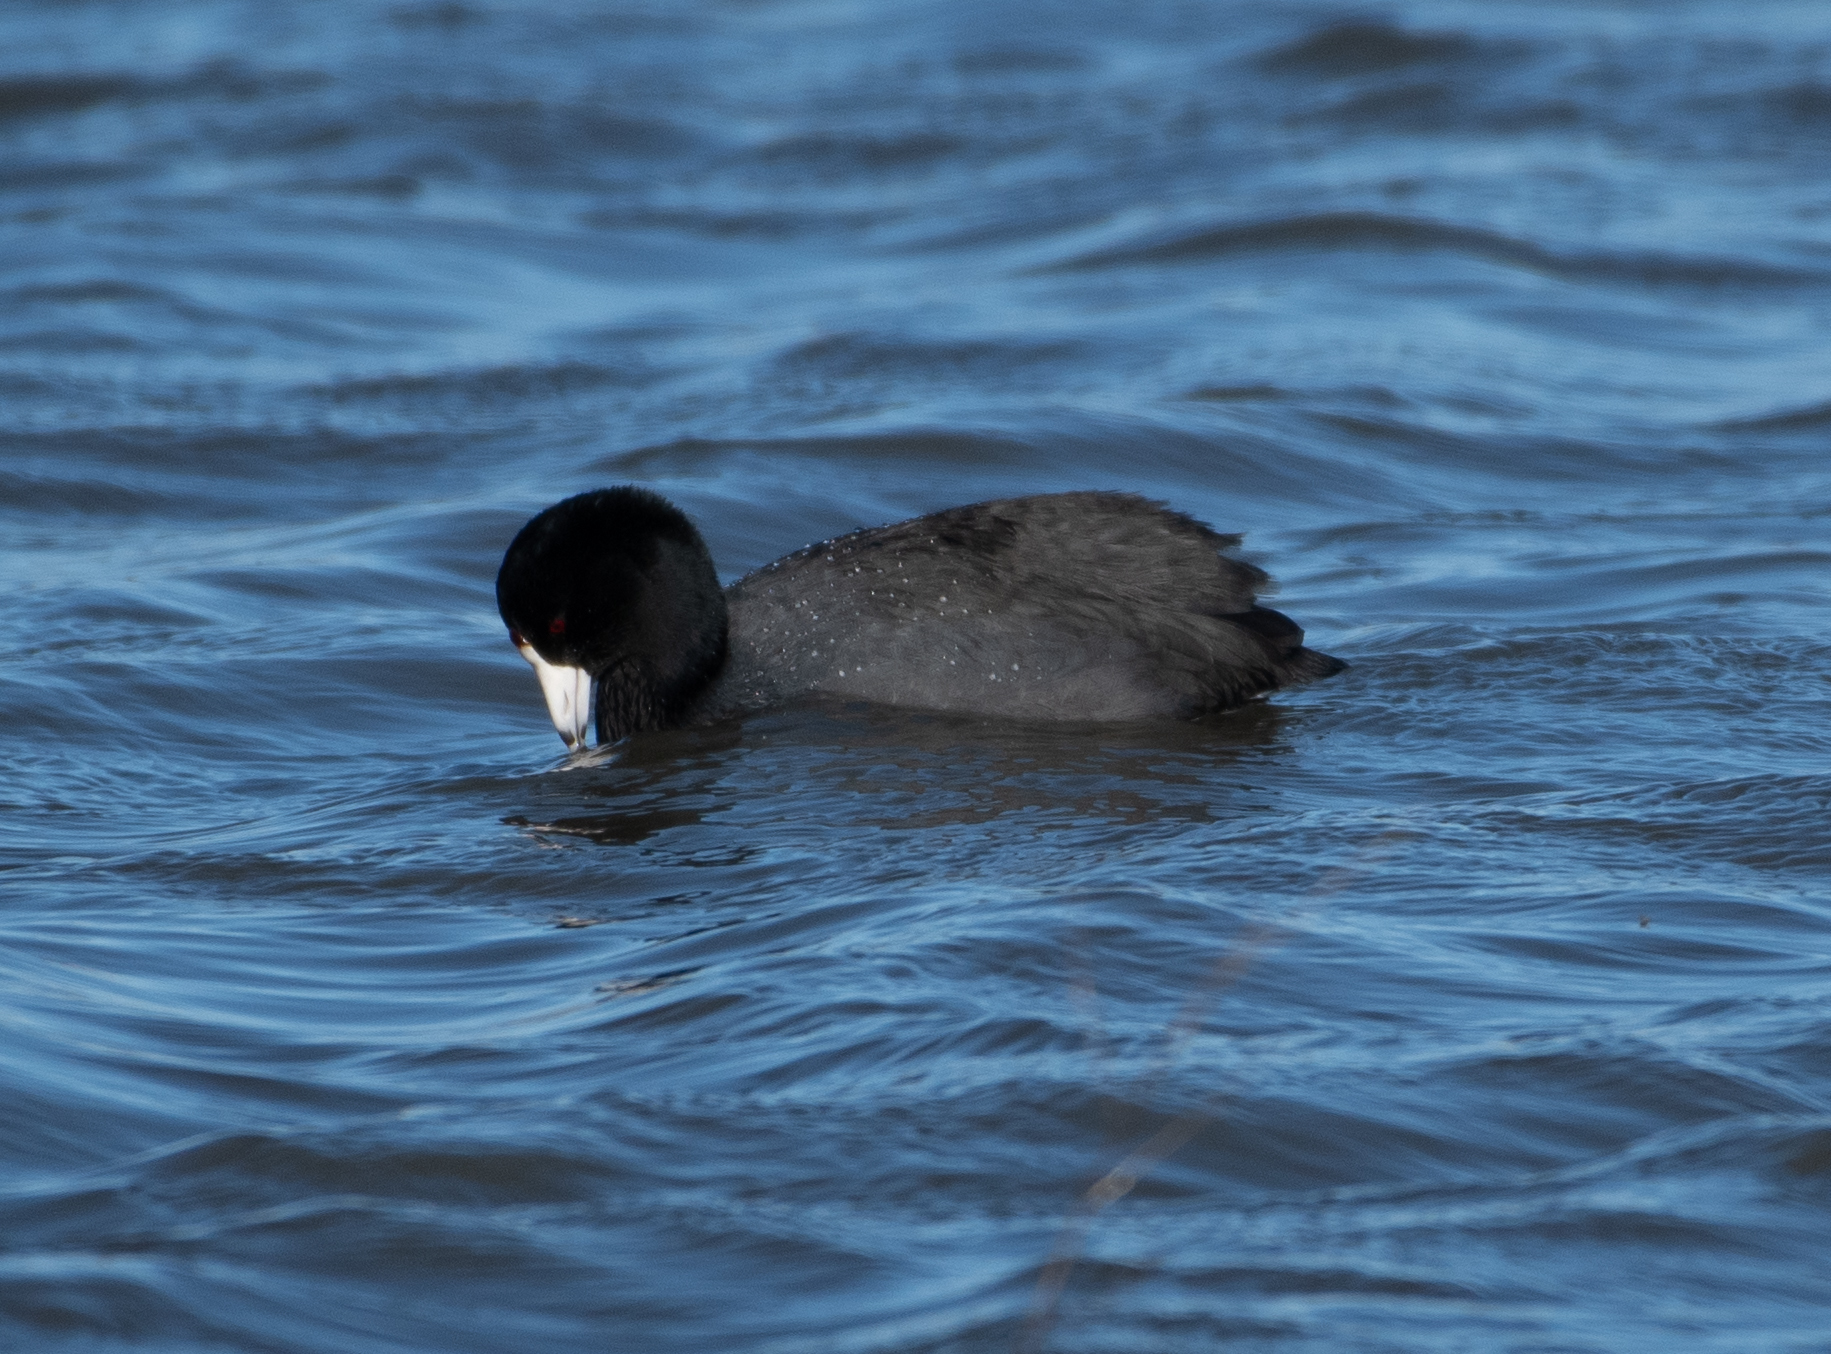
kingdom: Animalia
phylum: Chordata
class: Aves
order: Gruiformes
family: Rallidae
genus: Fulica
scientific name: Fulica americana
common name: American coot
